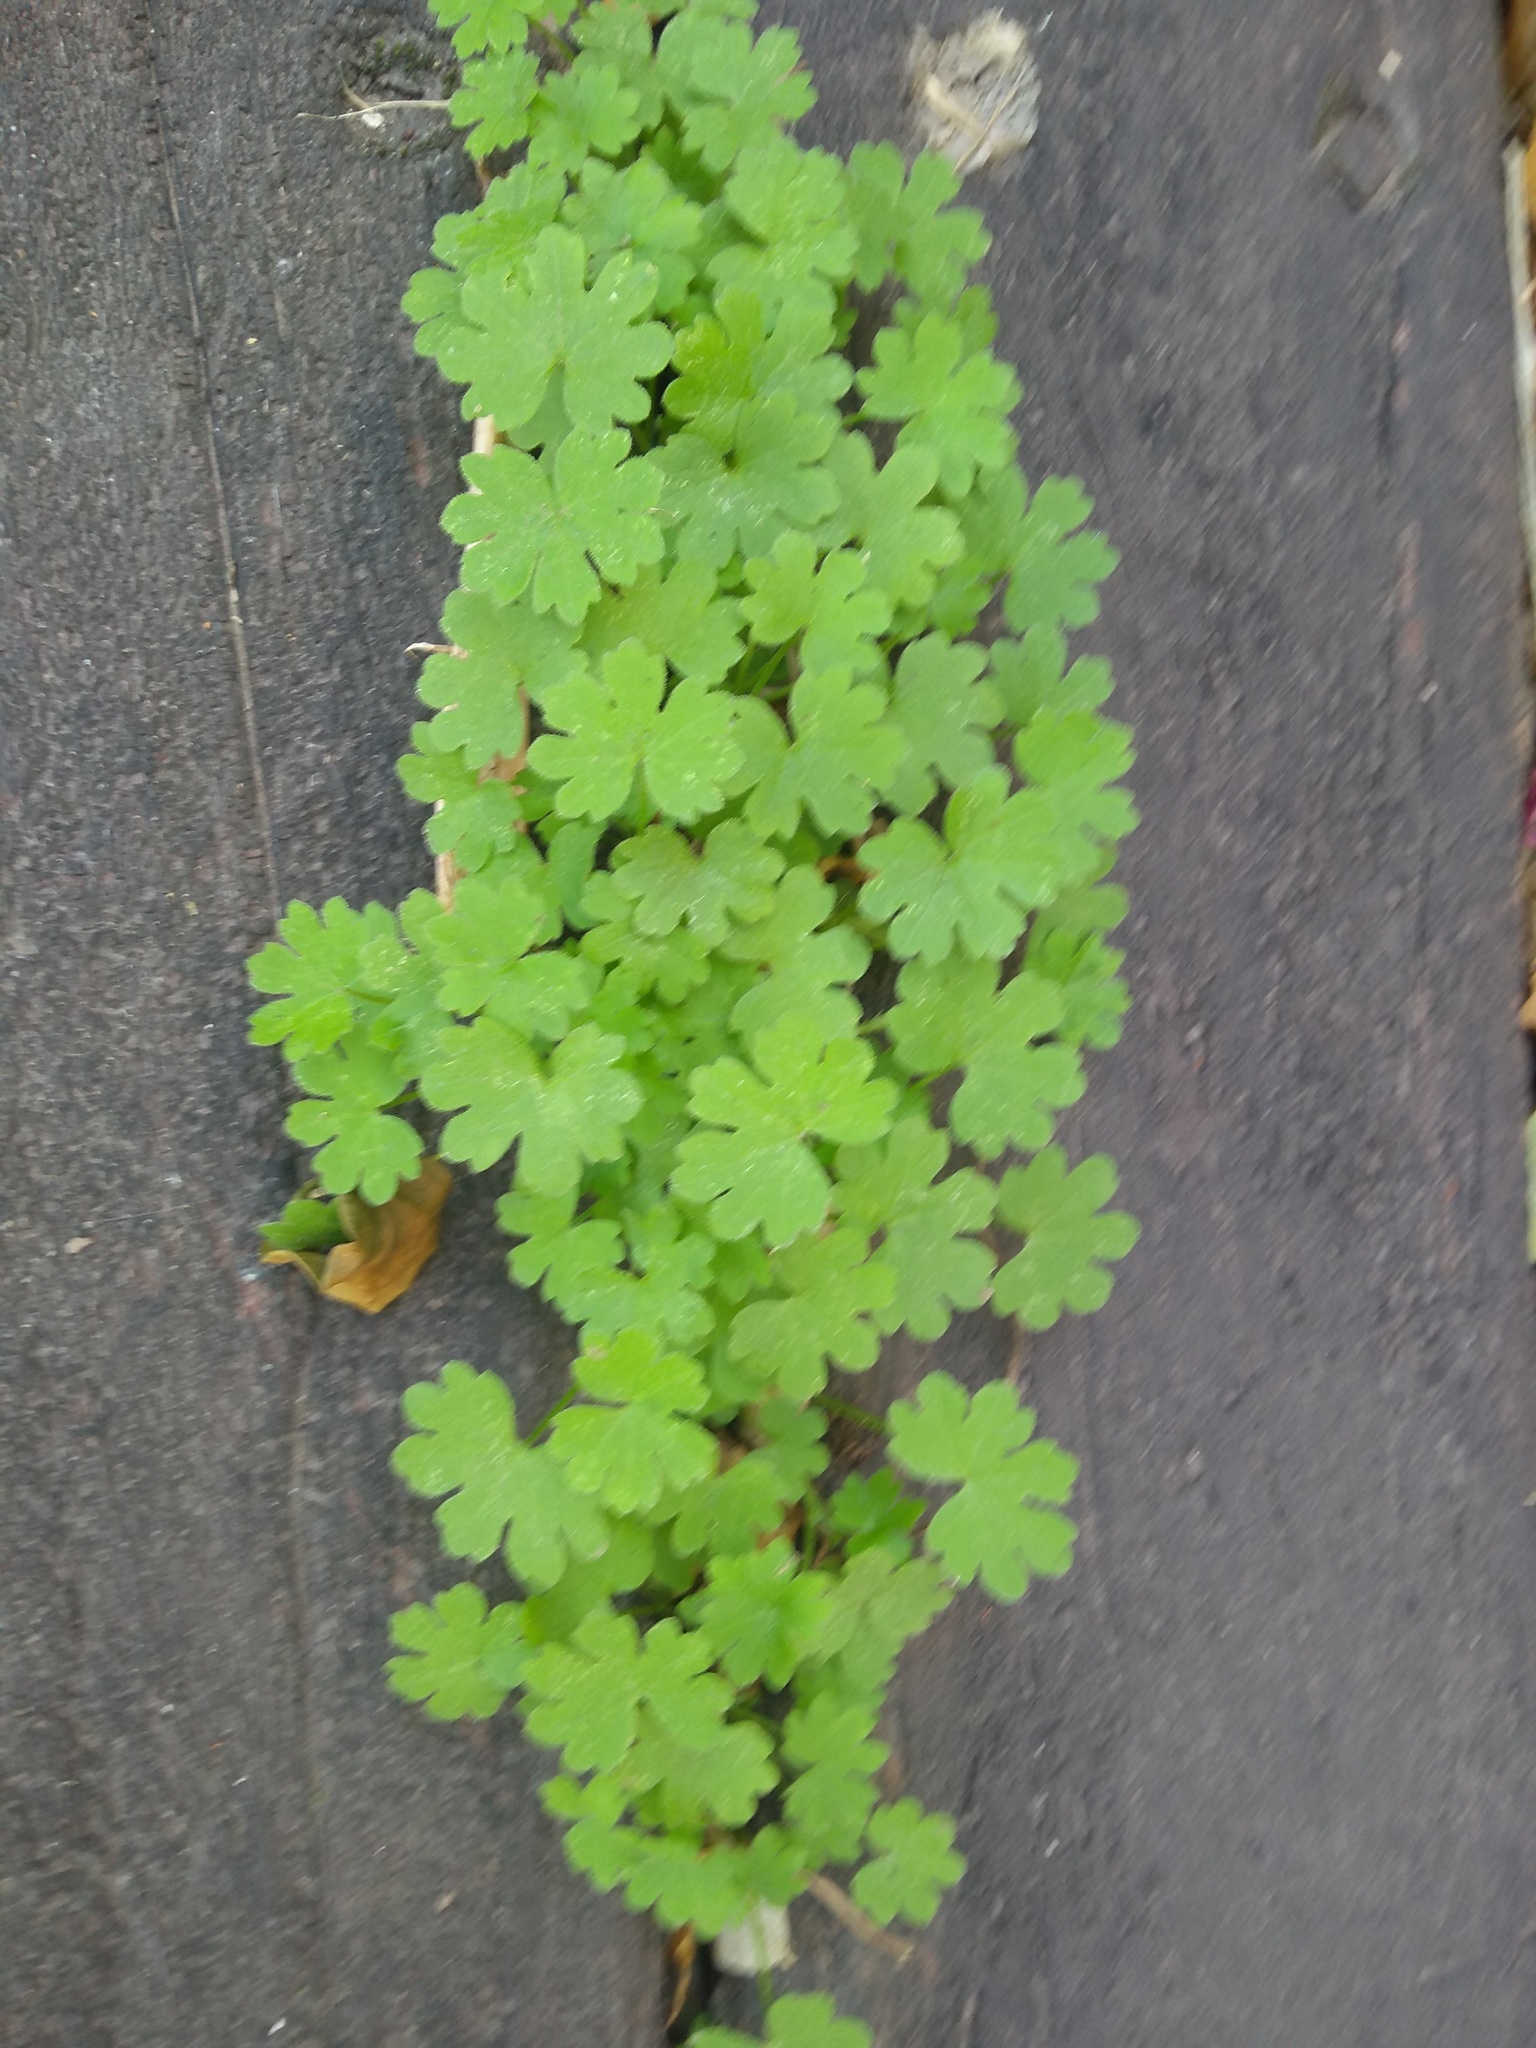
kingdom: Plantae
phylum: Tracheophyta
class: Magnoliopsida
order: Apiales
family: Apiaceae
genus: Bowlesia
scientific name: Bowlesia incana
